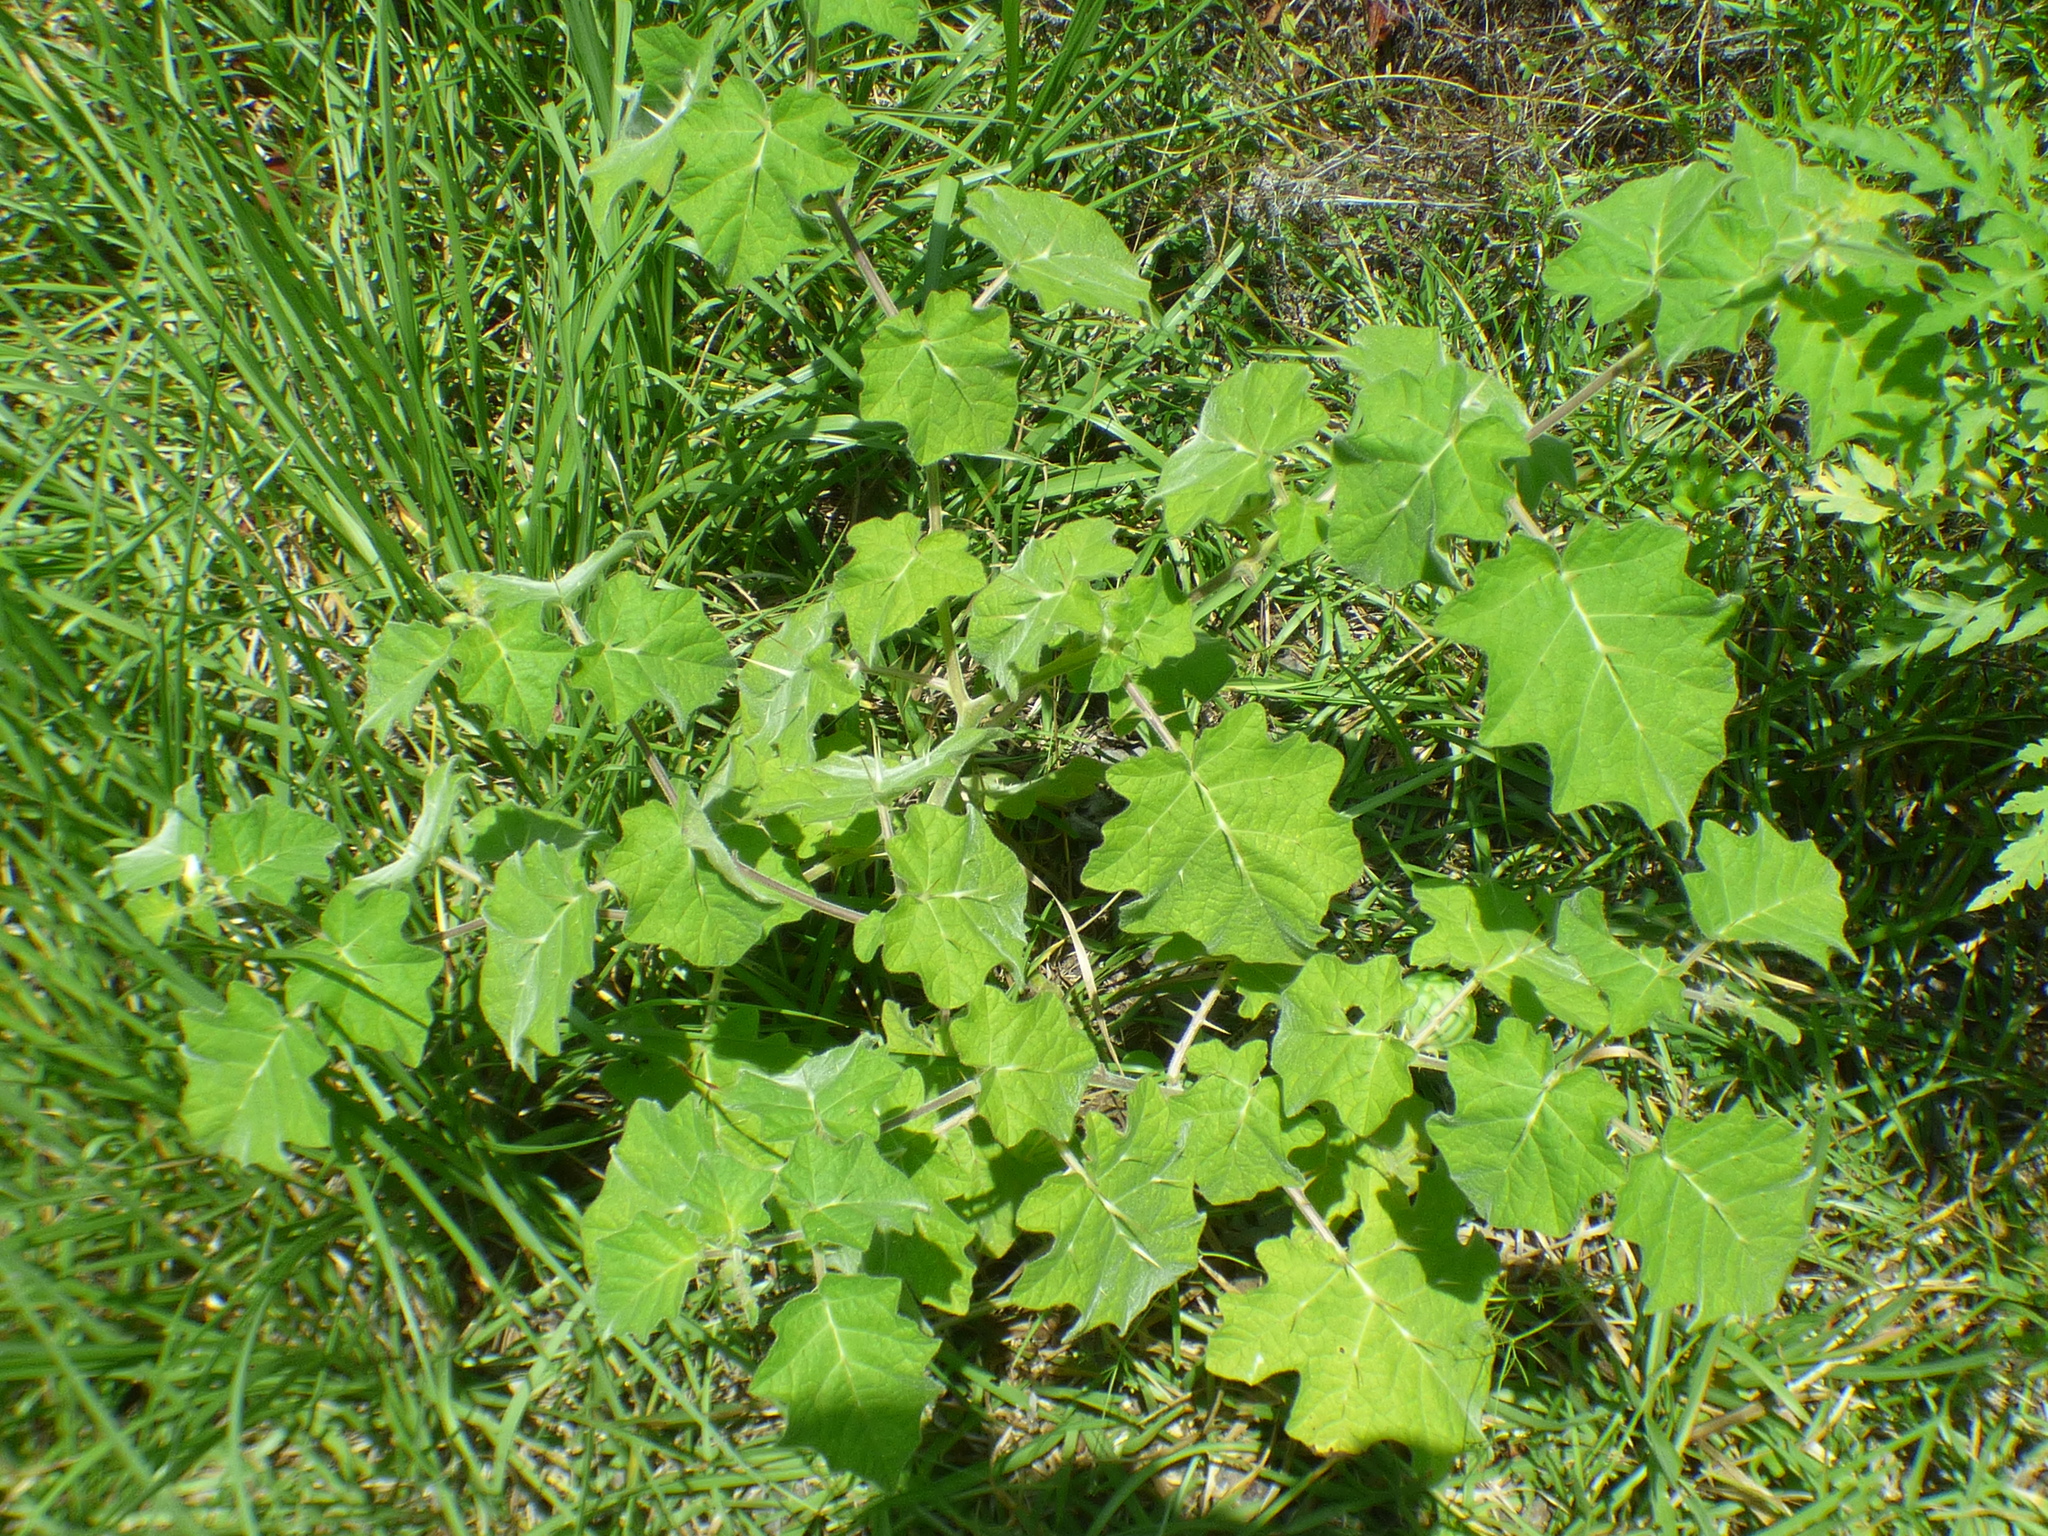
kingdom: Plantae
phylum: Tracheophyta
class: Magnoliopsida
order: Solanales
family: Solanaceae
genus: Solanum
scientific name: Solanum viarum
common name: Tropical soda apple
